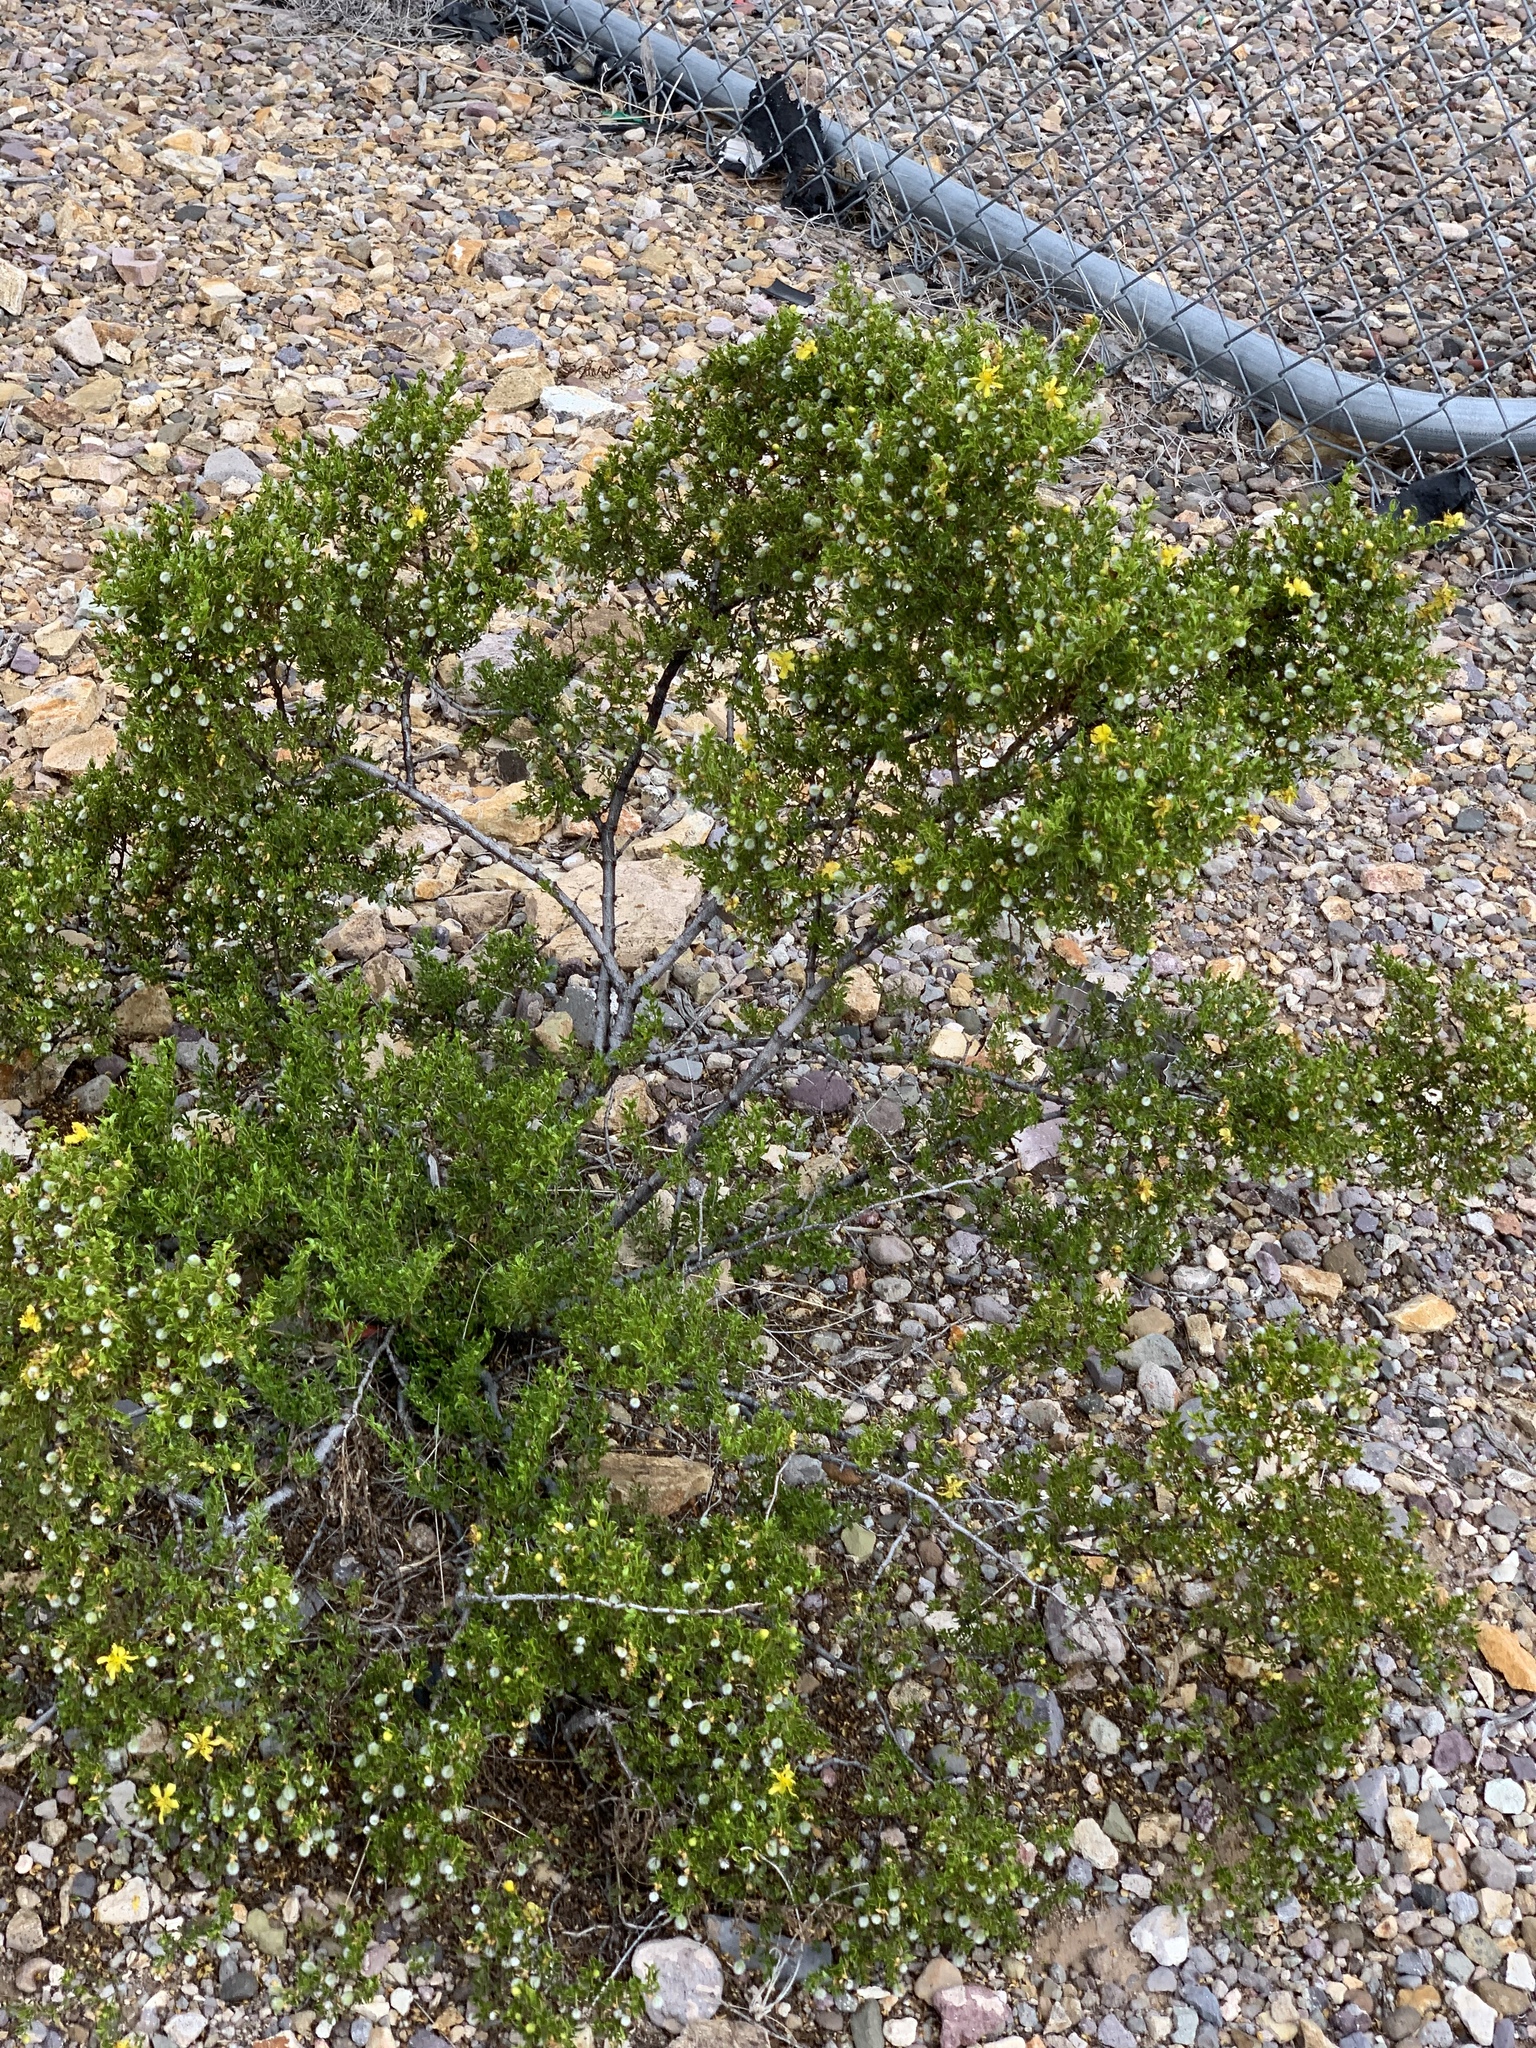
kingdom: Plantae
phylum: Tracheophyta
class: Magnoliopsida
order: Zygophyllales
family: Zygophyllaceae
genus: Larrea
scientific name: Larrea tridentata
